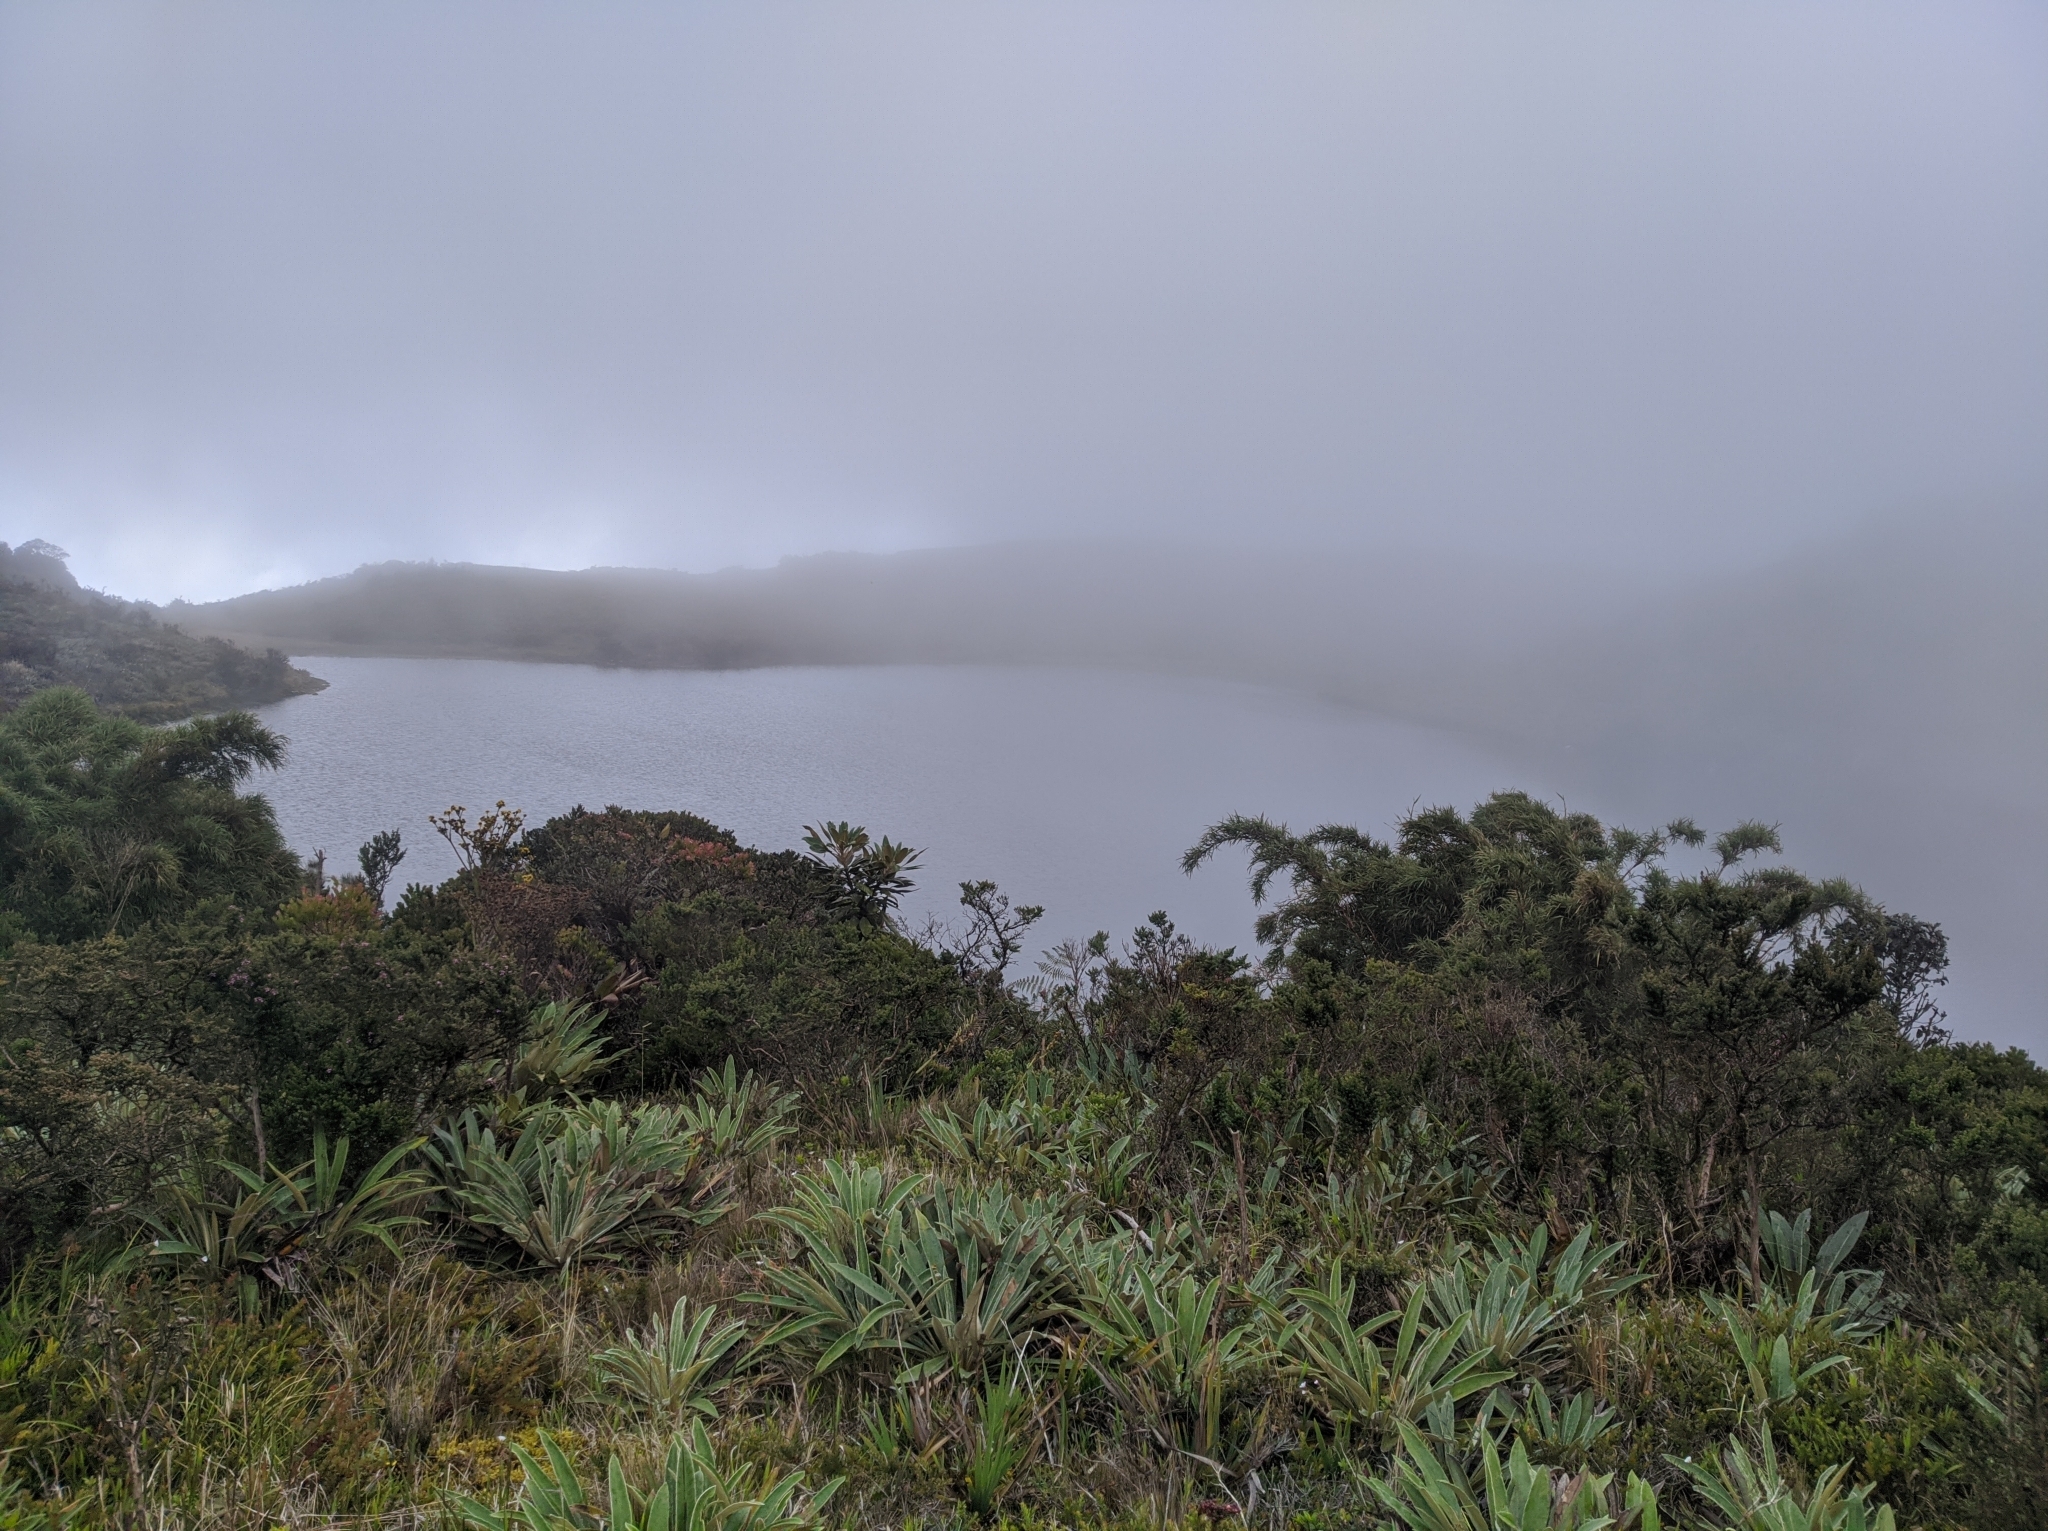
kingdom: Plantae
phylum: Tracheophyta
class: Magnoliopsida
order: Asterales
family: Asteraceae
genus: Espeletia
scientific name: Espeletia bracteosa
